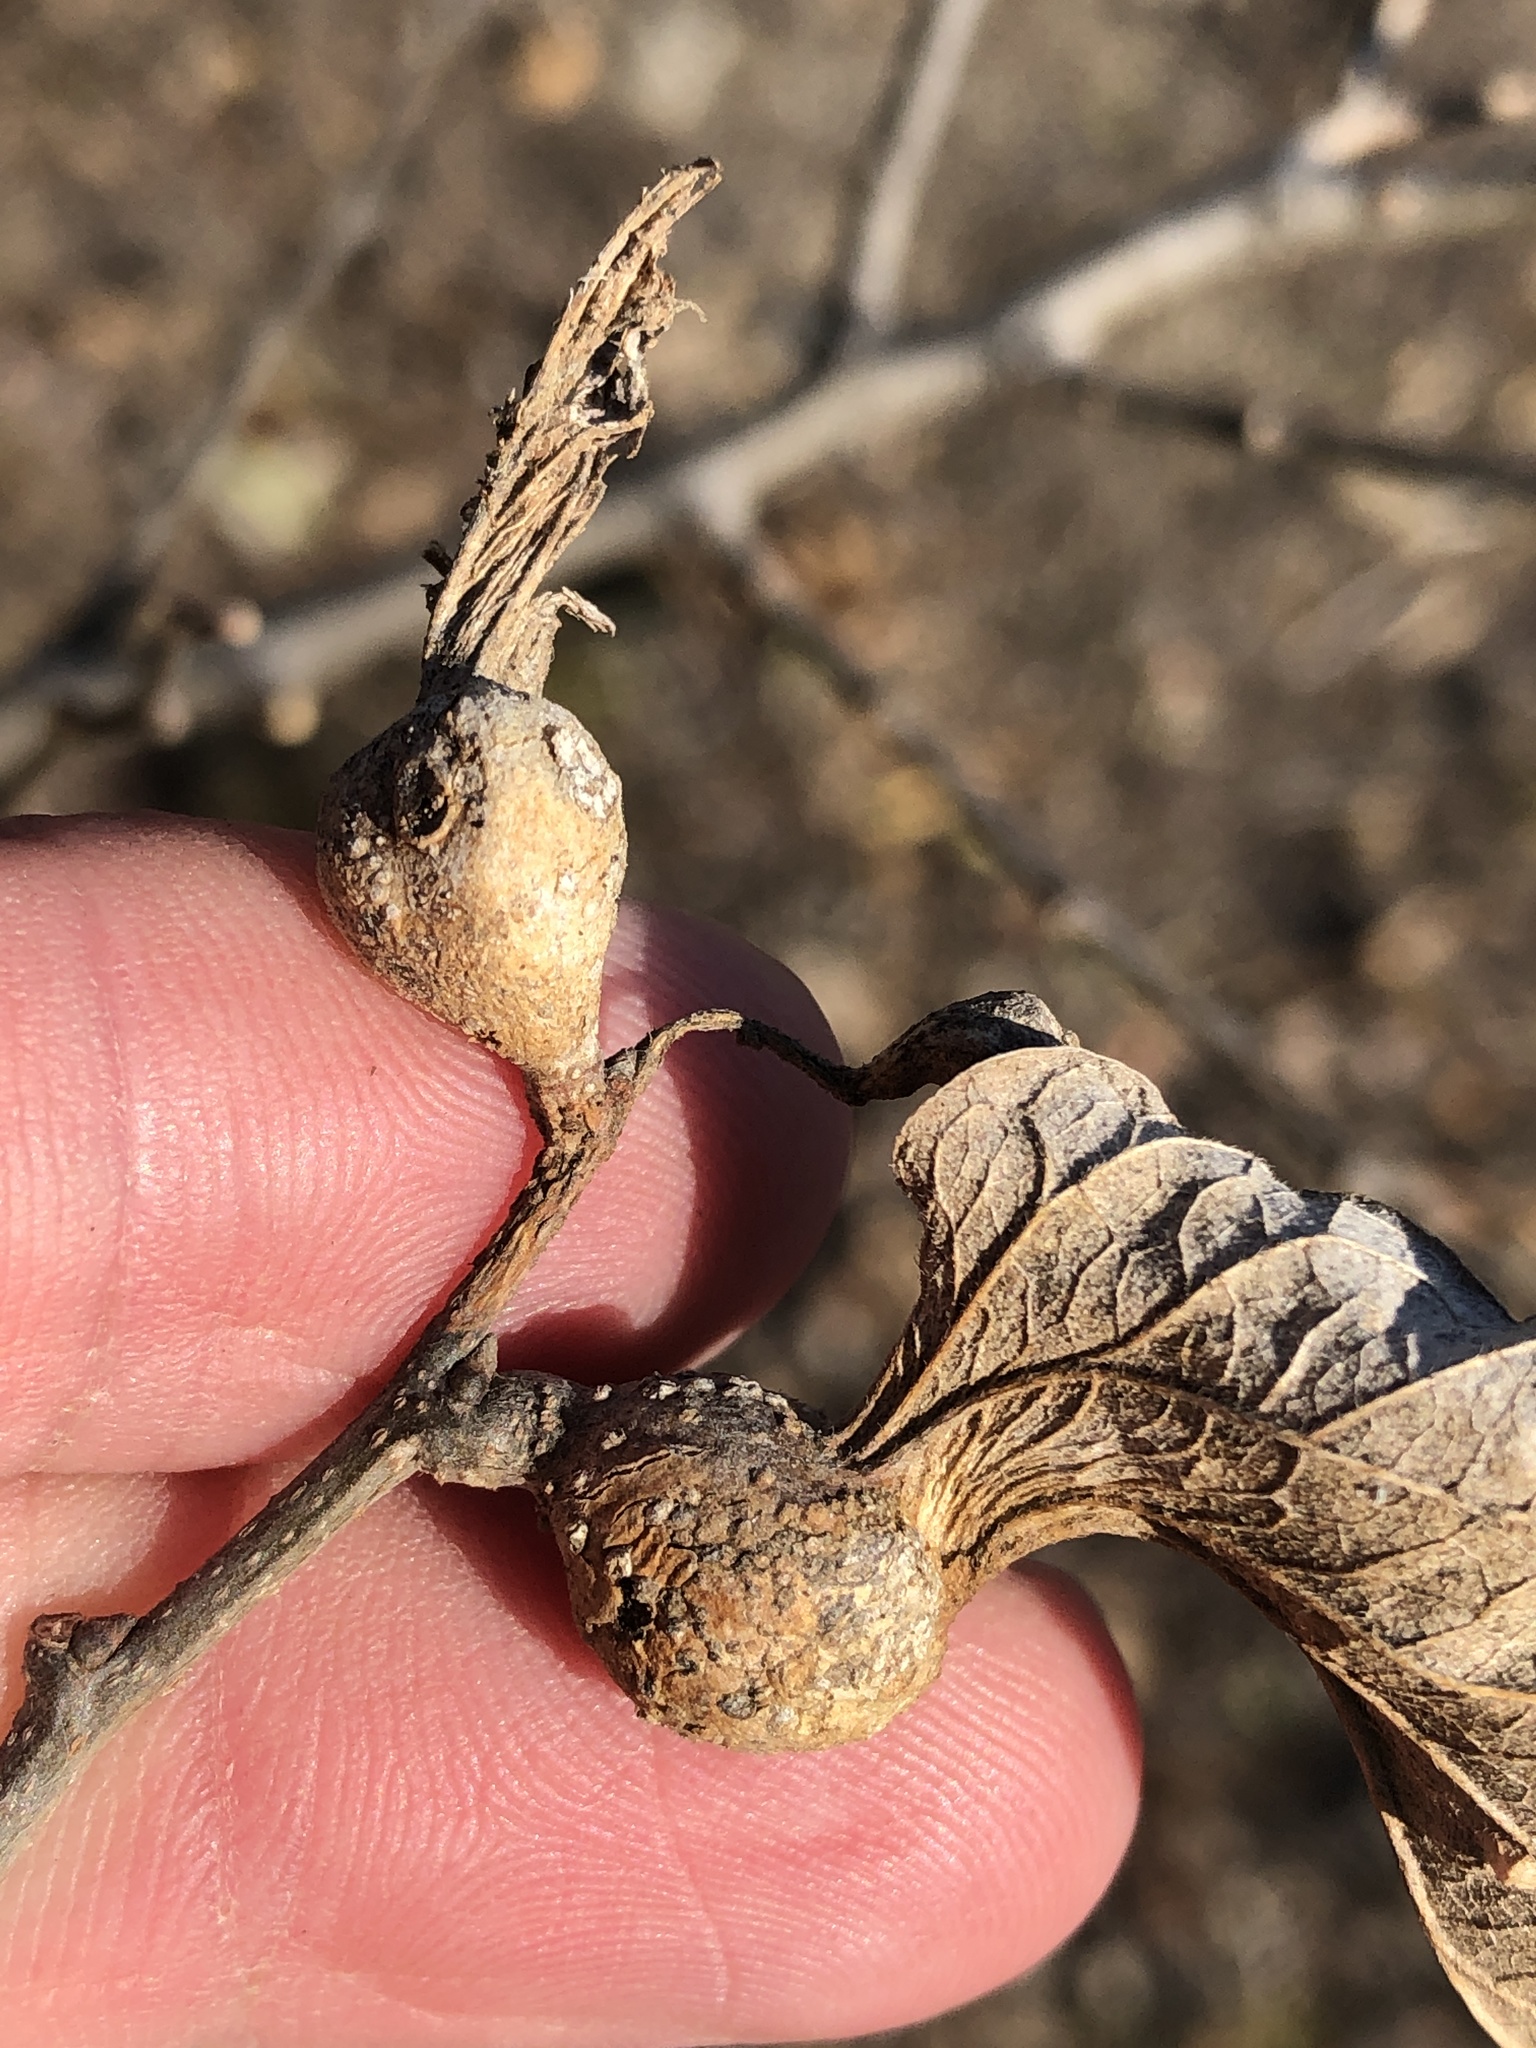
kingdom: Animalia
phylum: Arthropoda
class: Insecta
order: Hemiptera
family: Aphalaridae
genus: Pachypsylla
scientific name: Pachypsylla venusta
